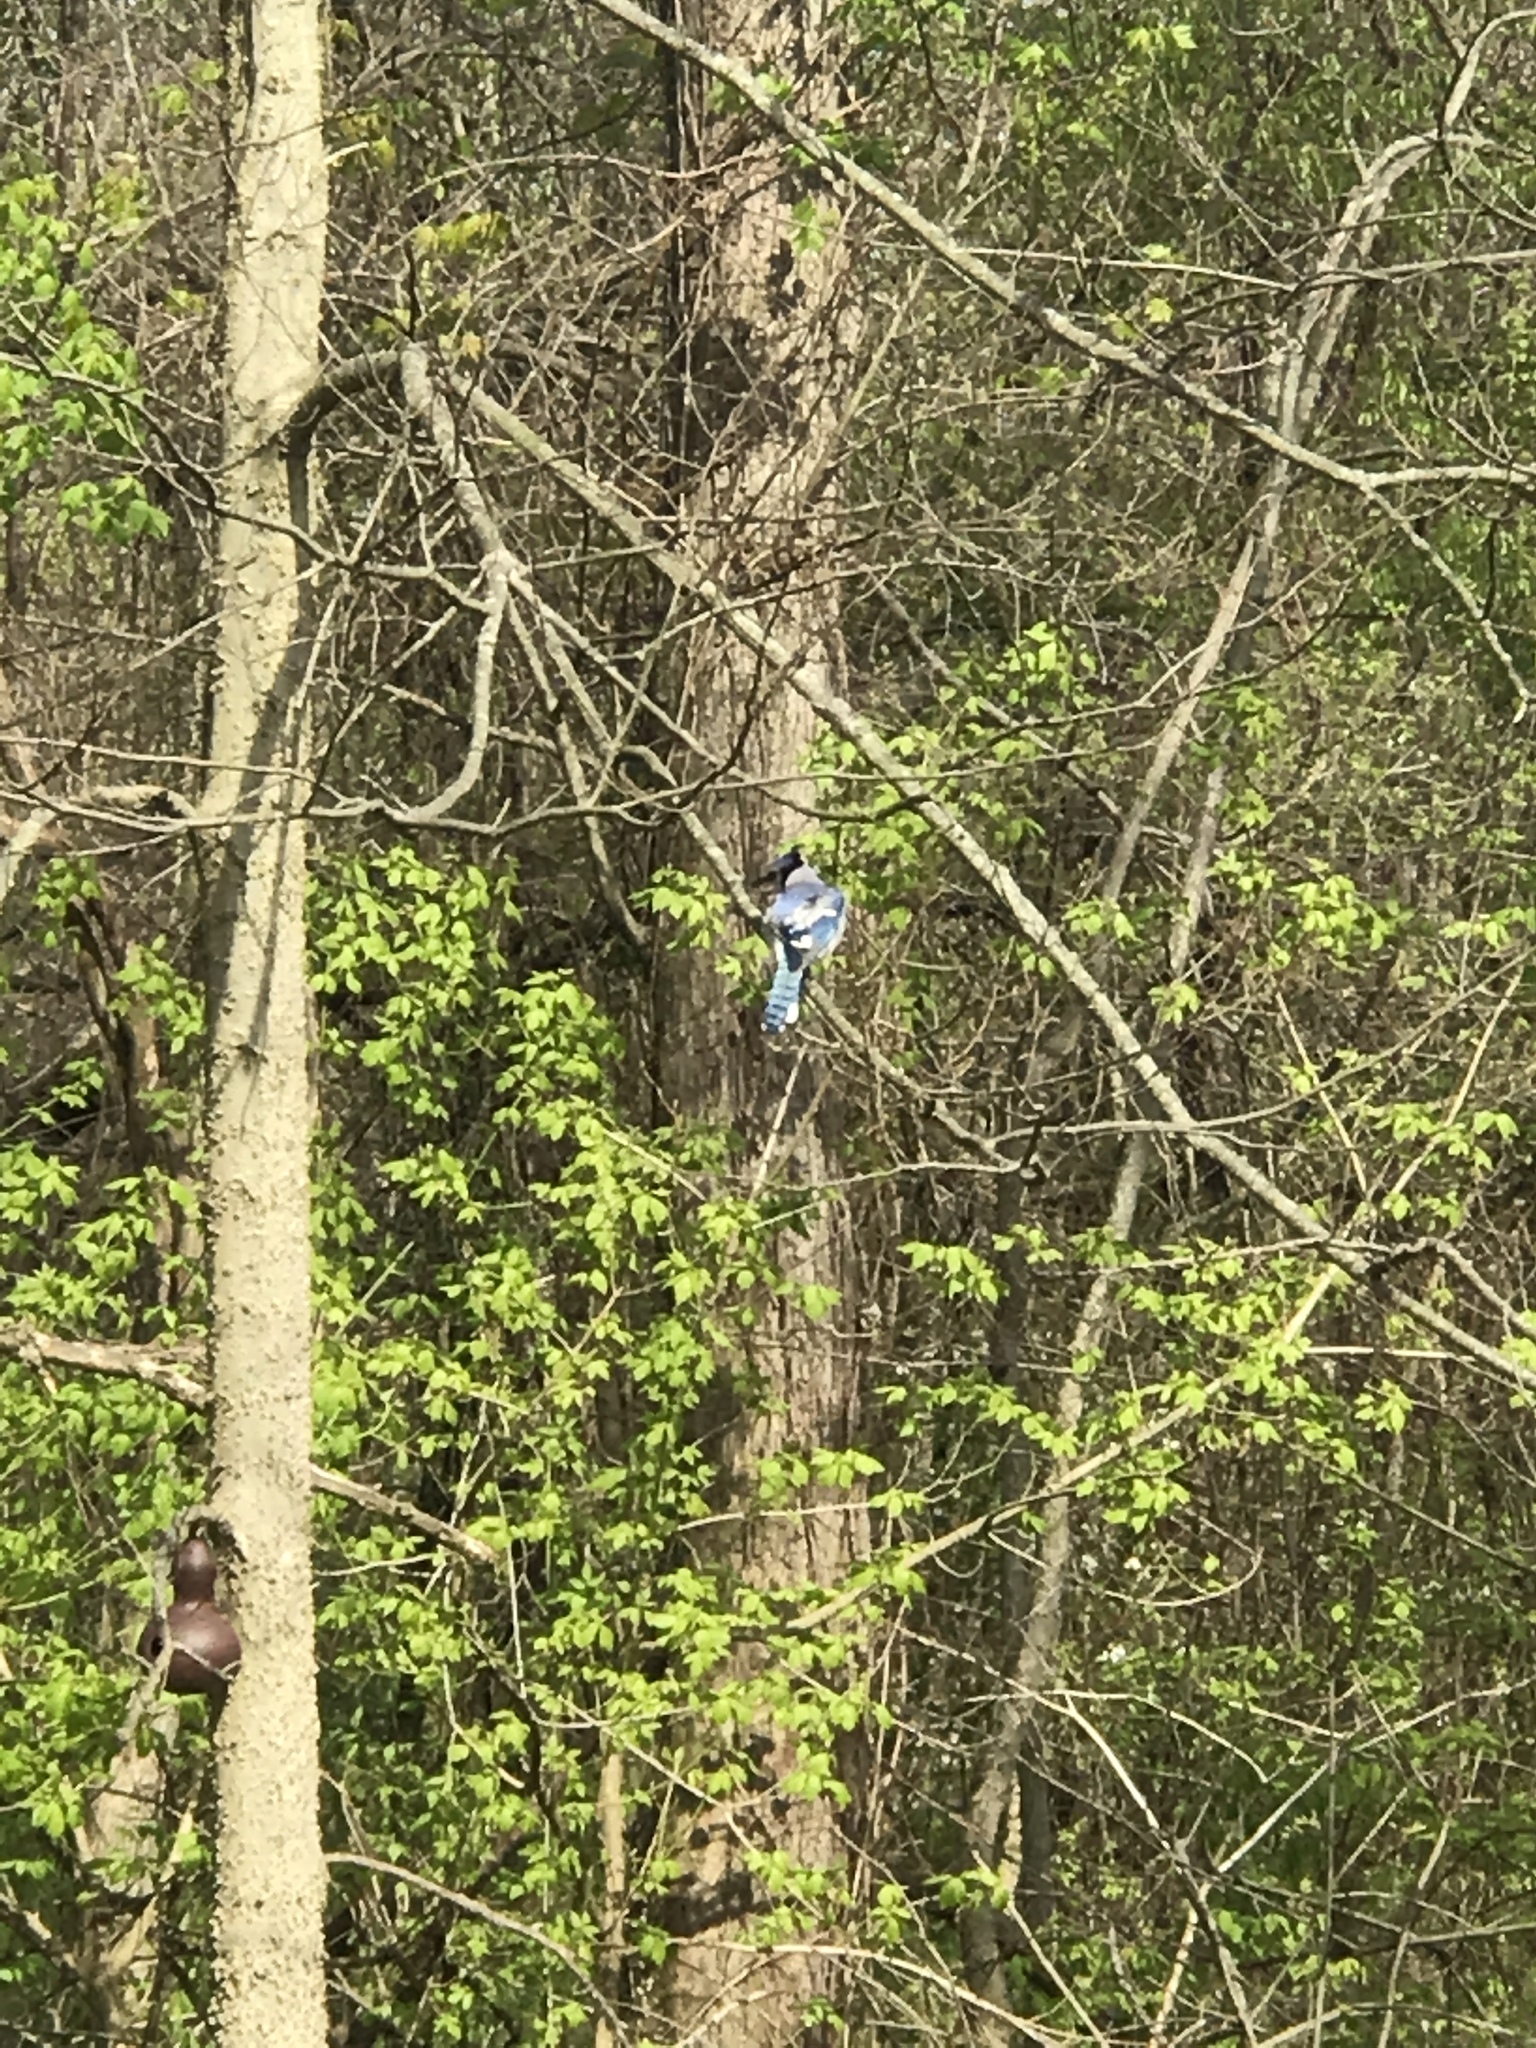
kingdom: Animalia
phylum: Chordata
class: Aves
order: Passeriformes
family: Corvidae
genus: Cyanocitta
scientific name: Cyanocitta cristata
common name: Blue jay
